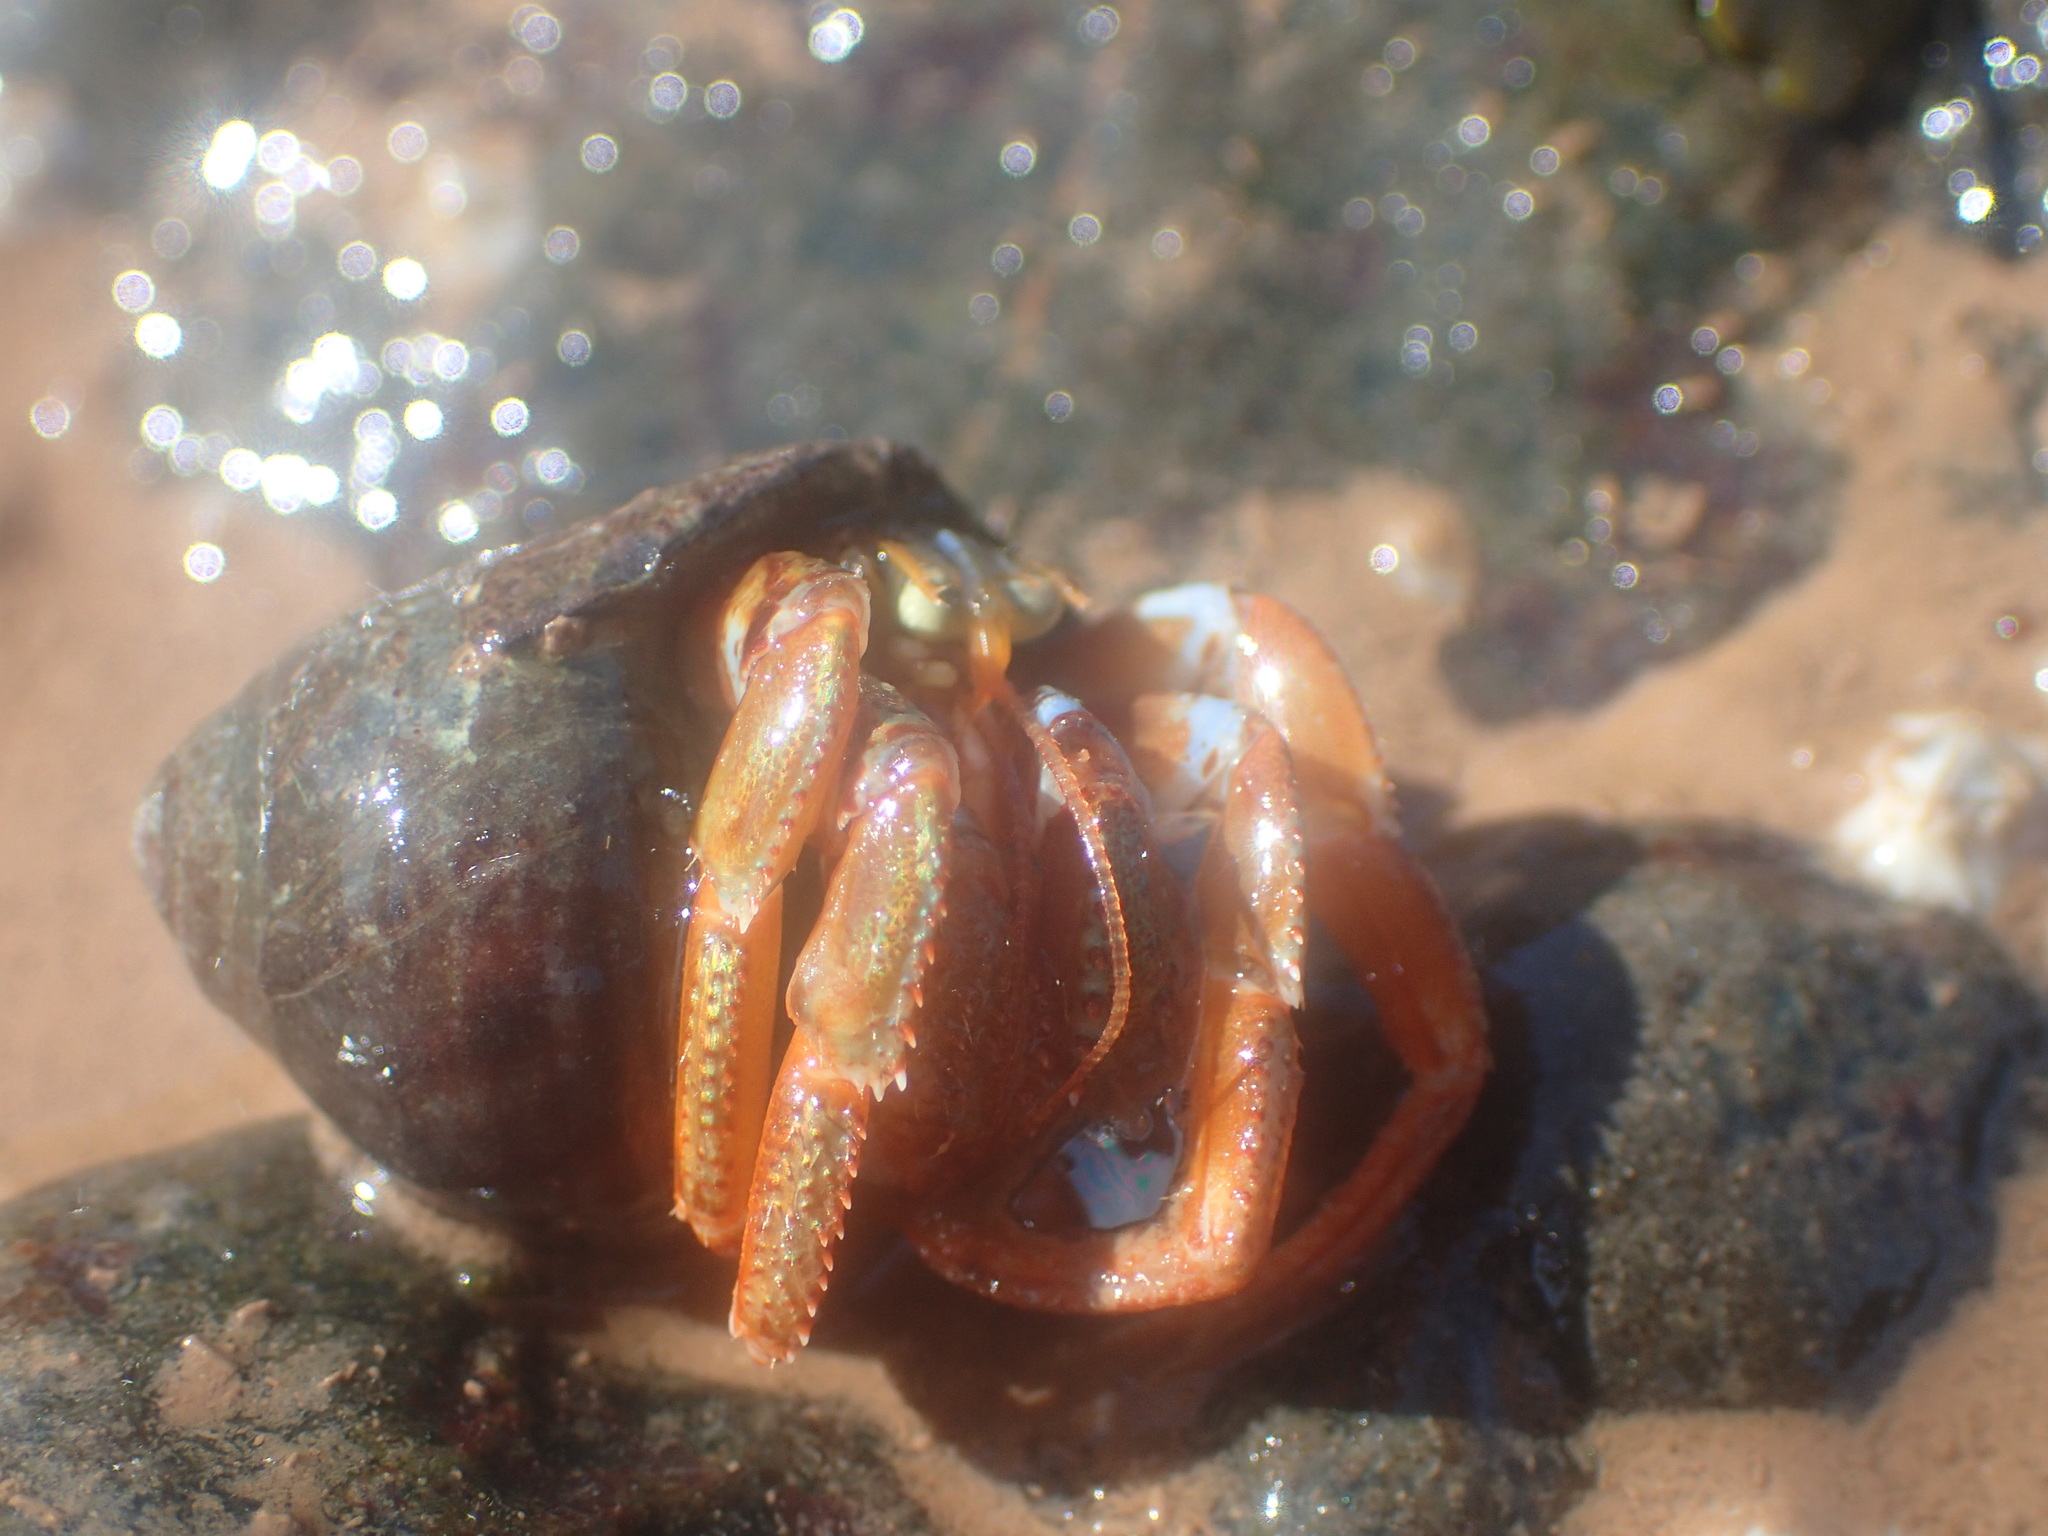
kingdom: Animalia
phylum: Arthropoda
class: Malacostraca
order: Decapoda
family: Paguridae
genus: Pagurus
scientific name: Pagurus acadianus
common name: Acadian hermit crab
